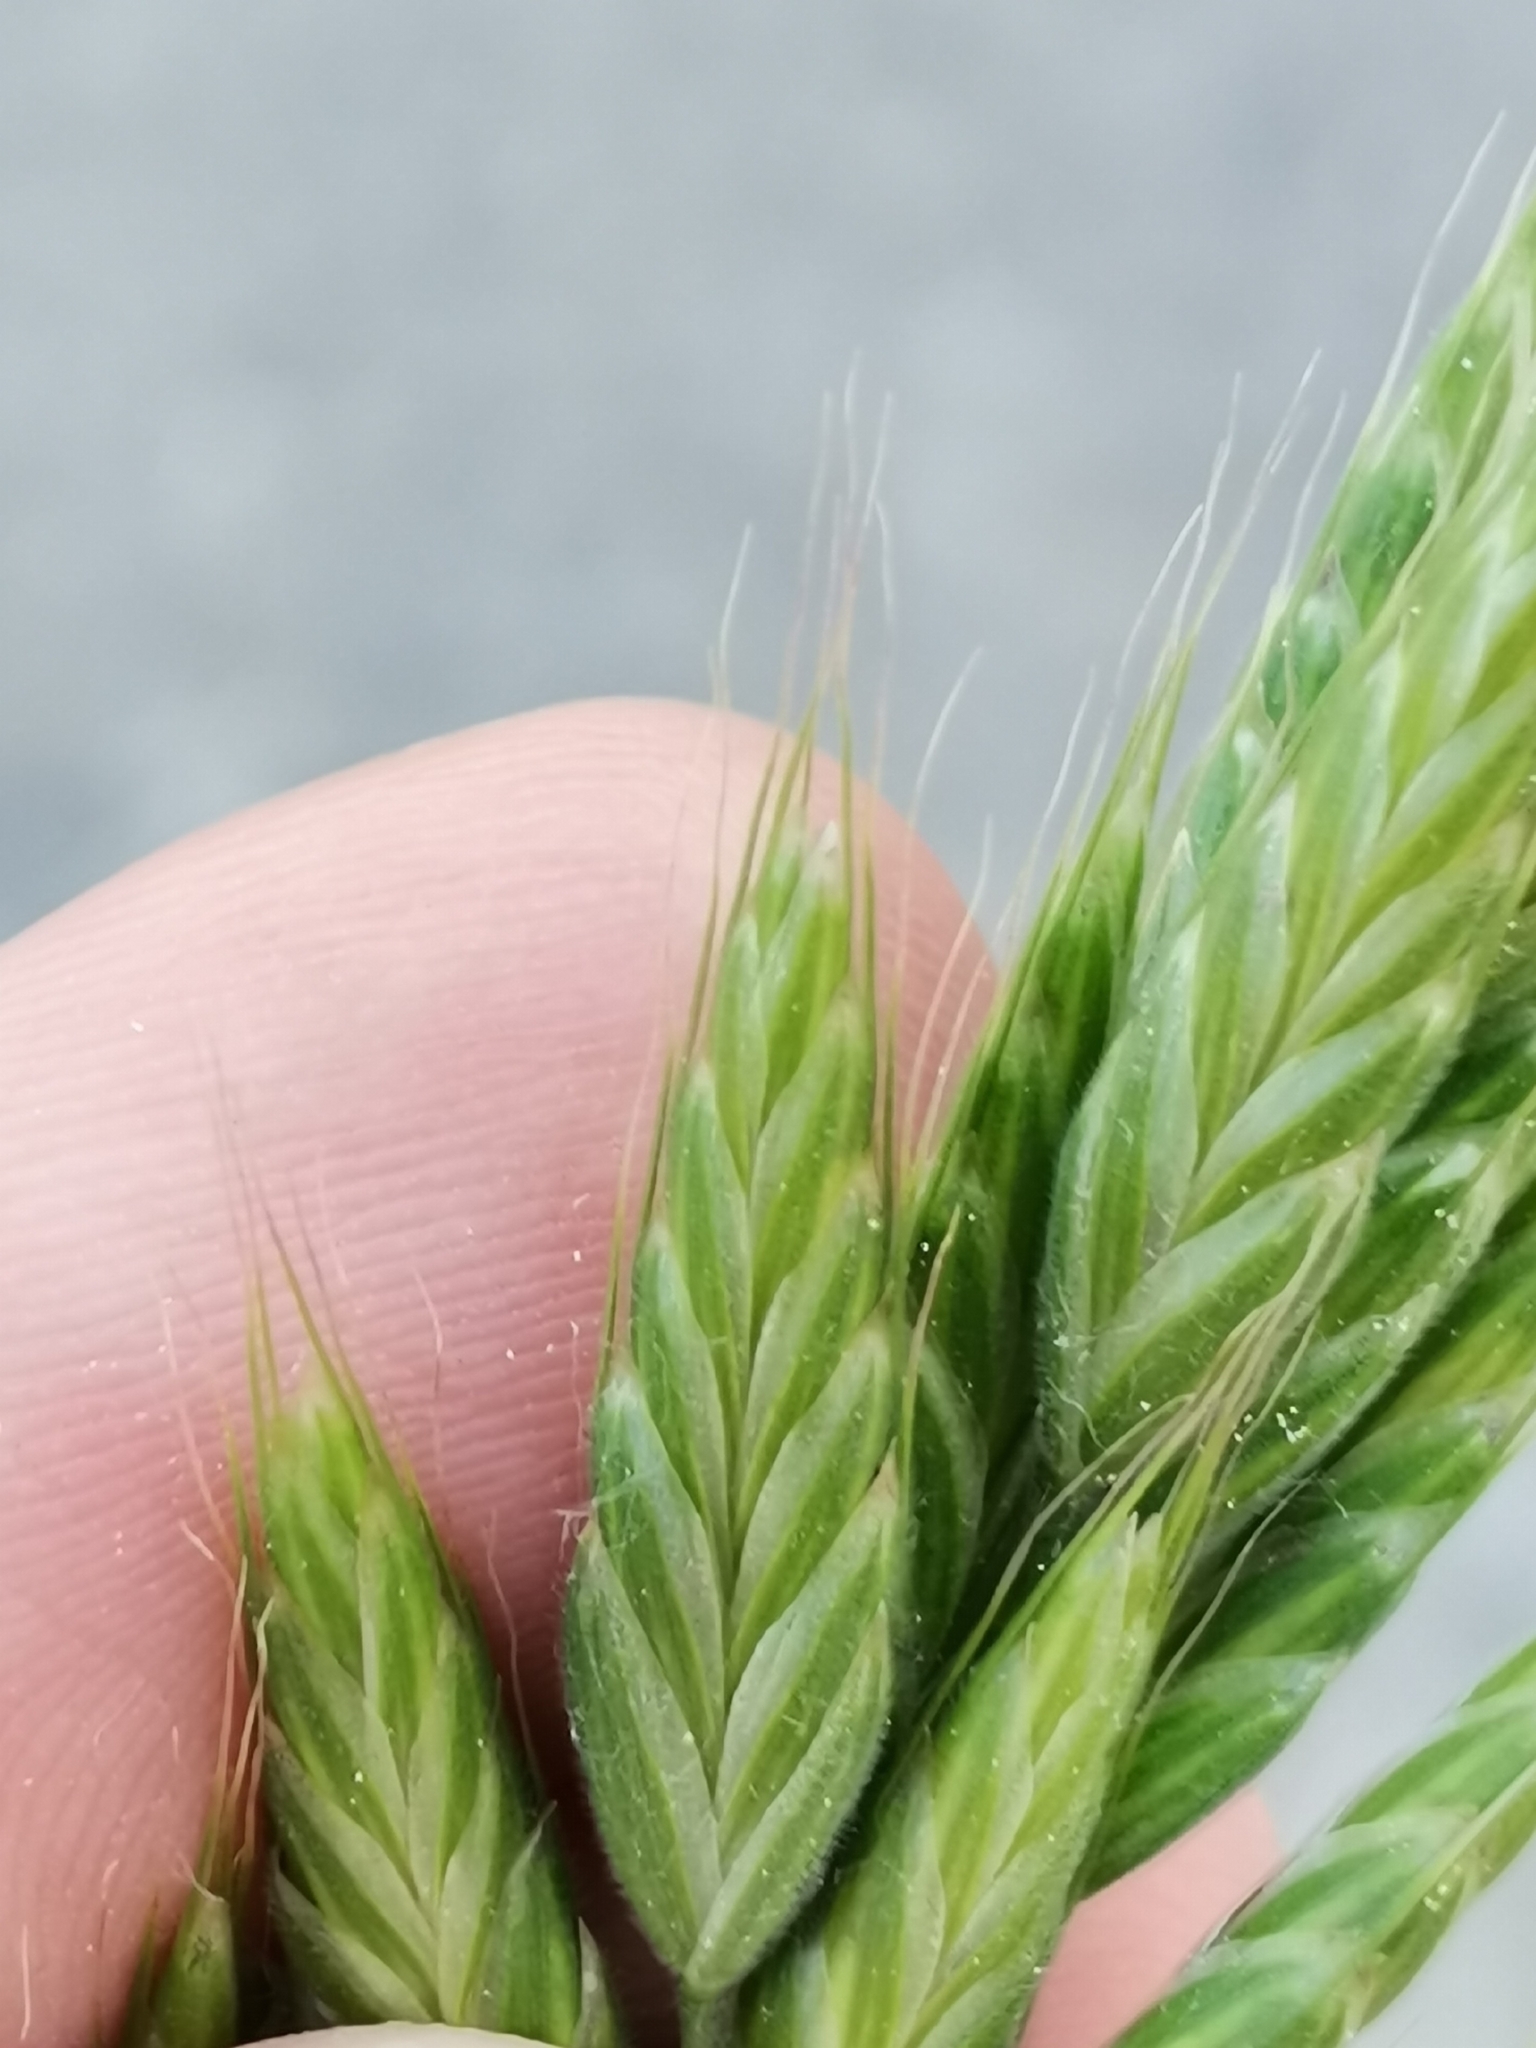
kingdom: Plantae
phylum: Tracheophyta
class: Liliopsida
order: Poales
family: Poaceae
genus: Bromus
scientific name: Bromus hordeaceus
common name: Soft brome
